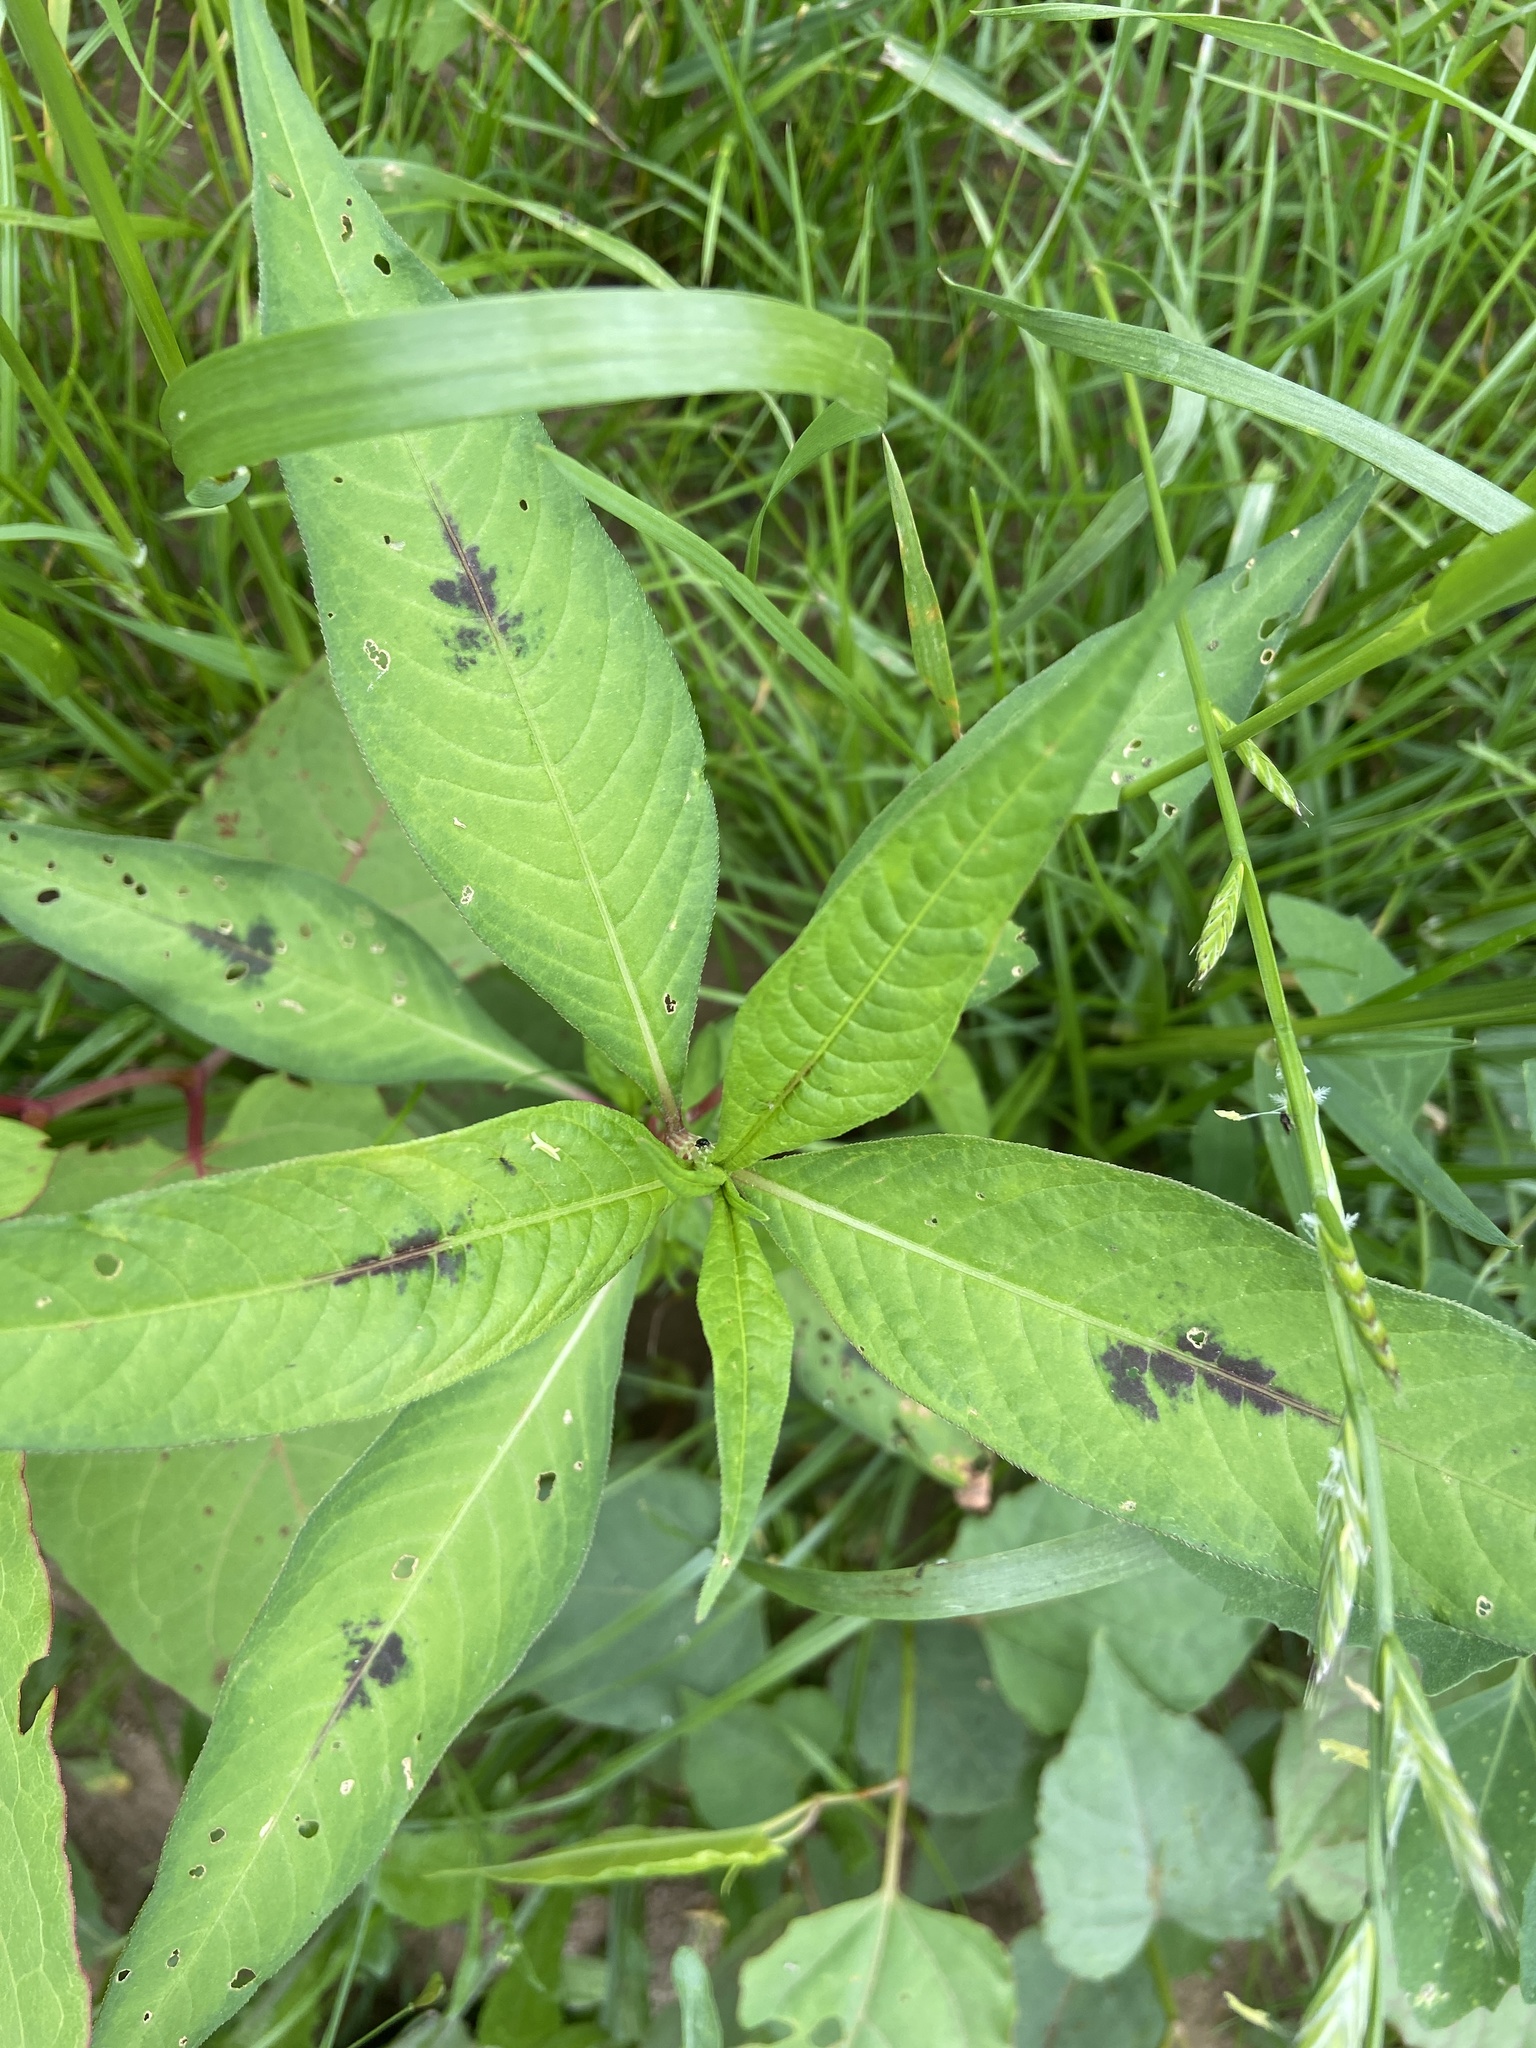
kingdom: Plantae
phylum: Tracheophyta
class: Magnoliopsida
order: Caryophyllales
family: Polygonaceae
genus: Persicaria
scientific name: Persicaria maculosa
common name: Redshank
